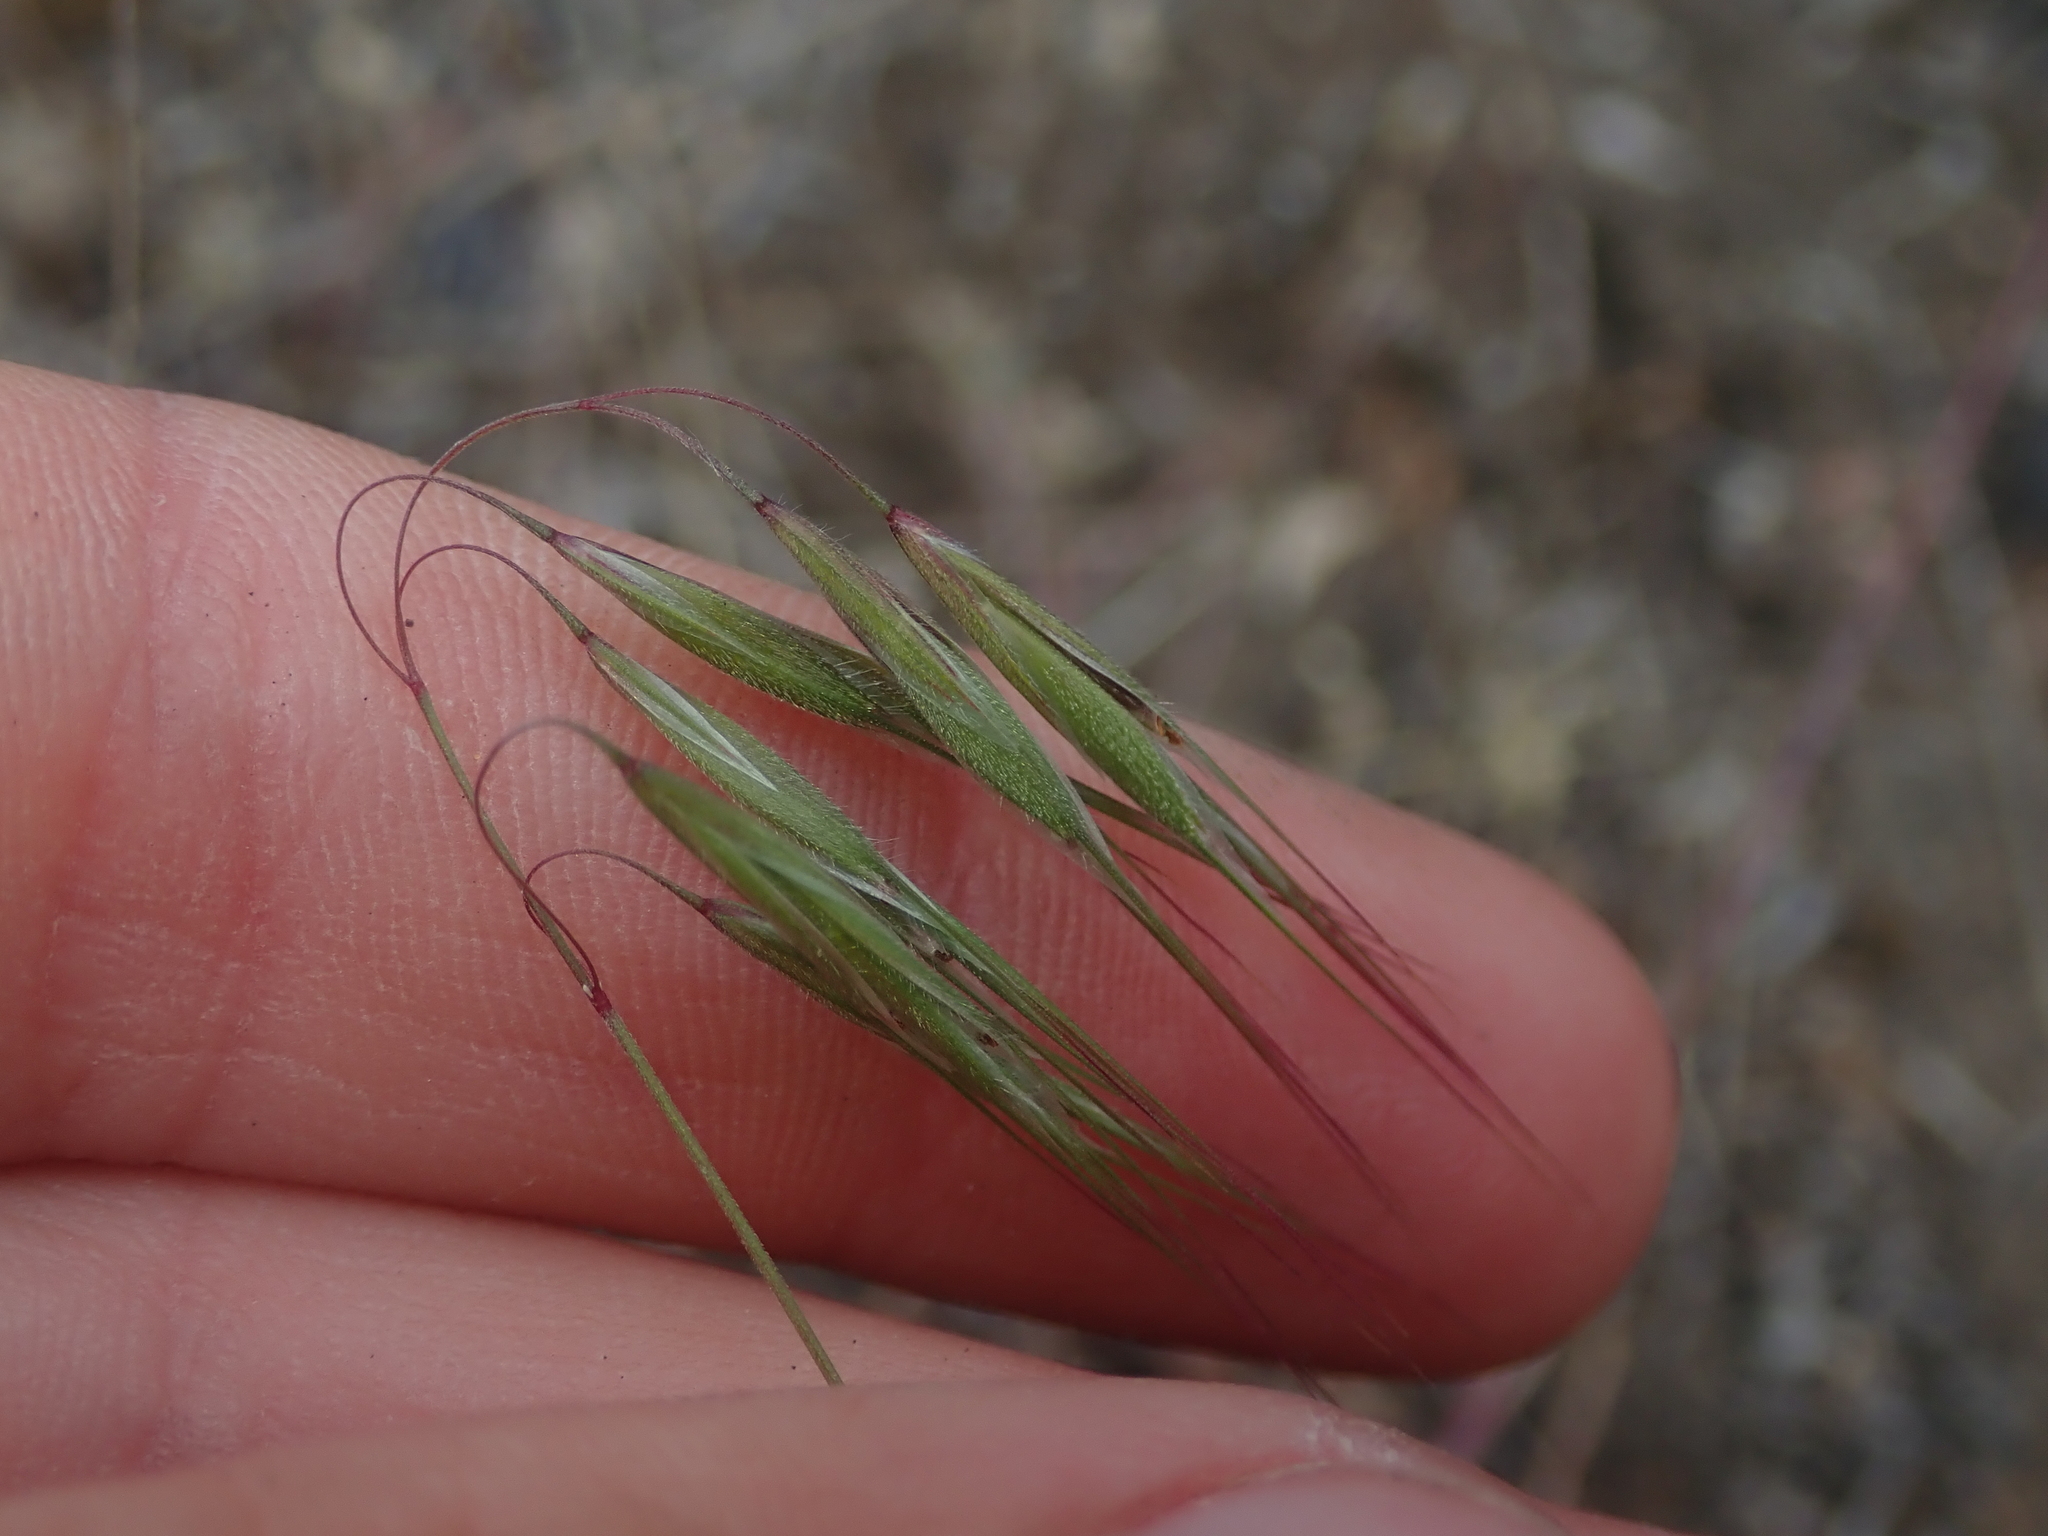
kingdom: Plantae
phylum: Tracheophyta
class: Liliopsida
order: Poales
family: Poaceae
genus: Bromus
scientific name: Bromus tectorum
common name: Cheatgrass
